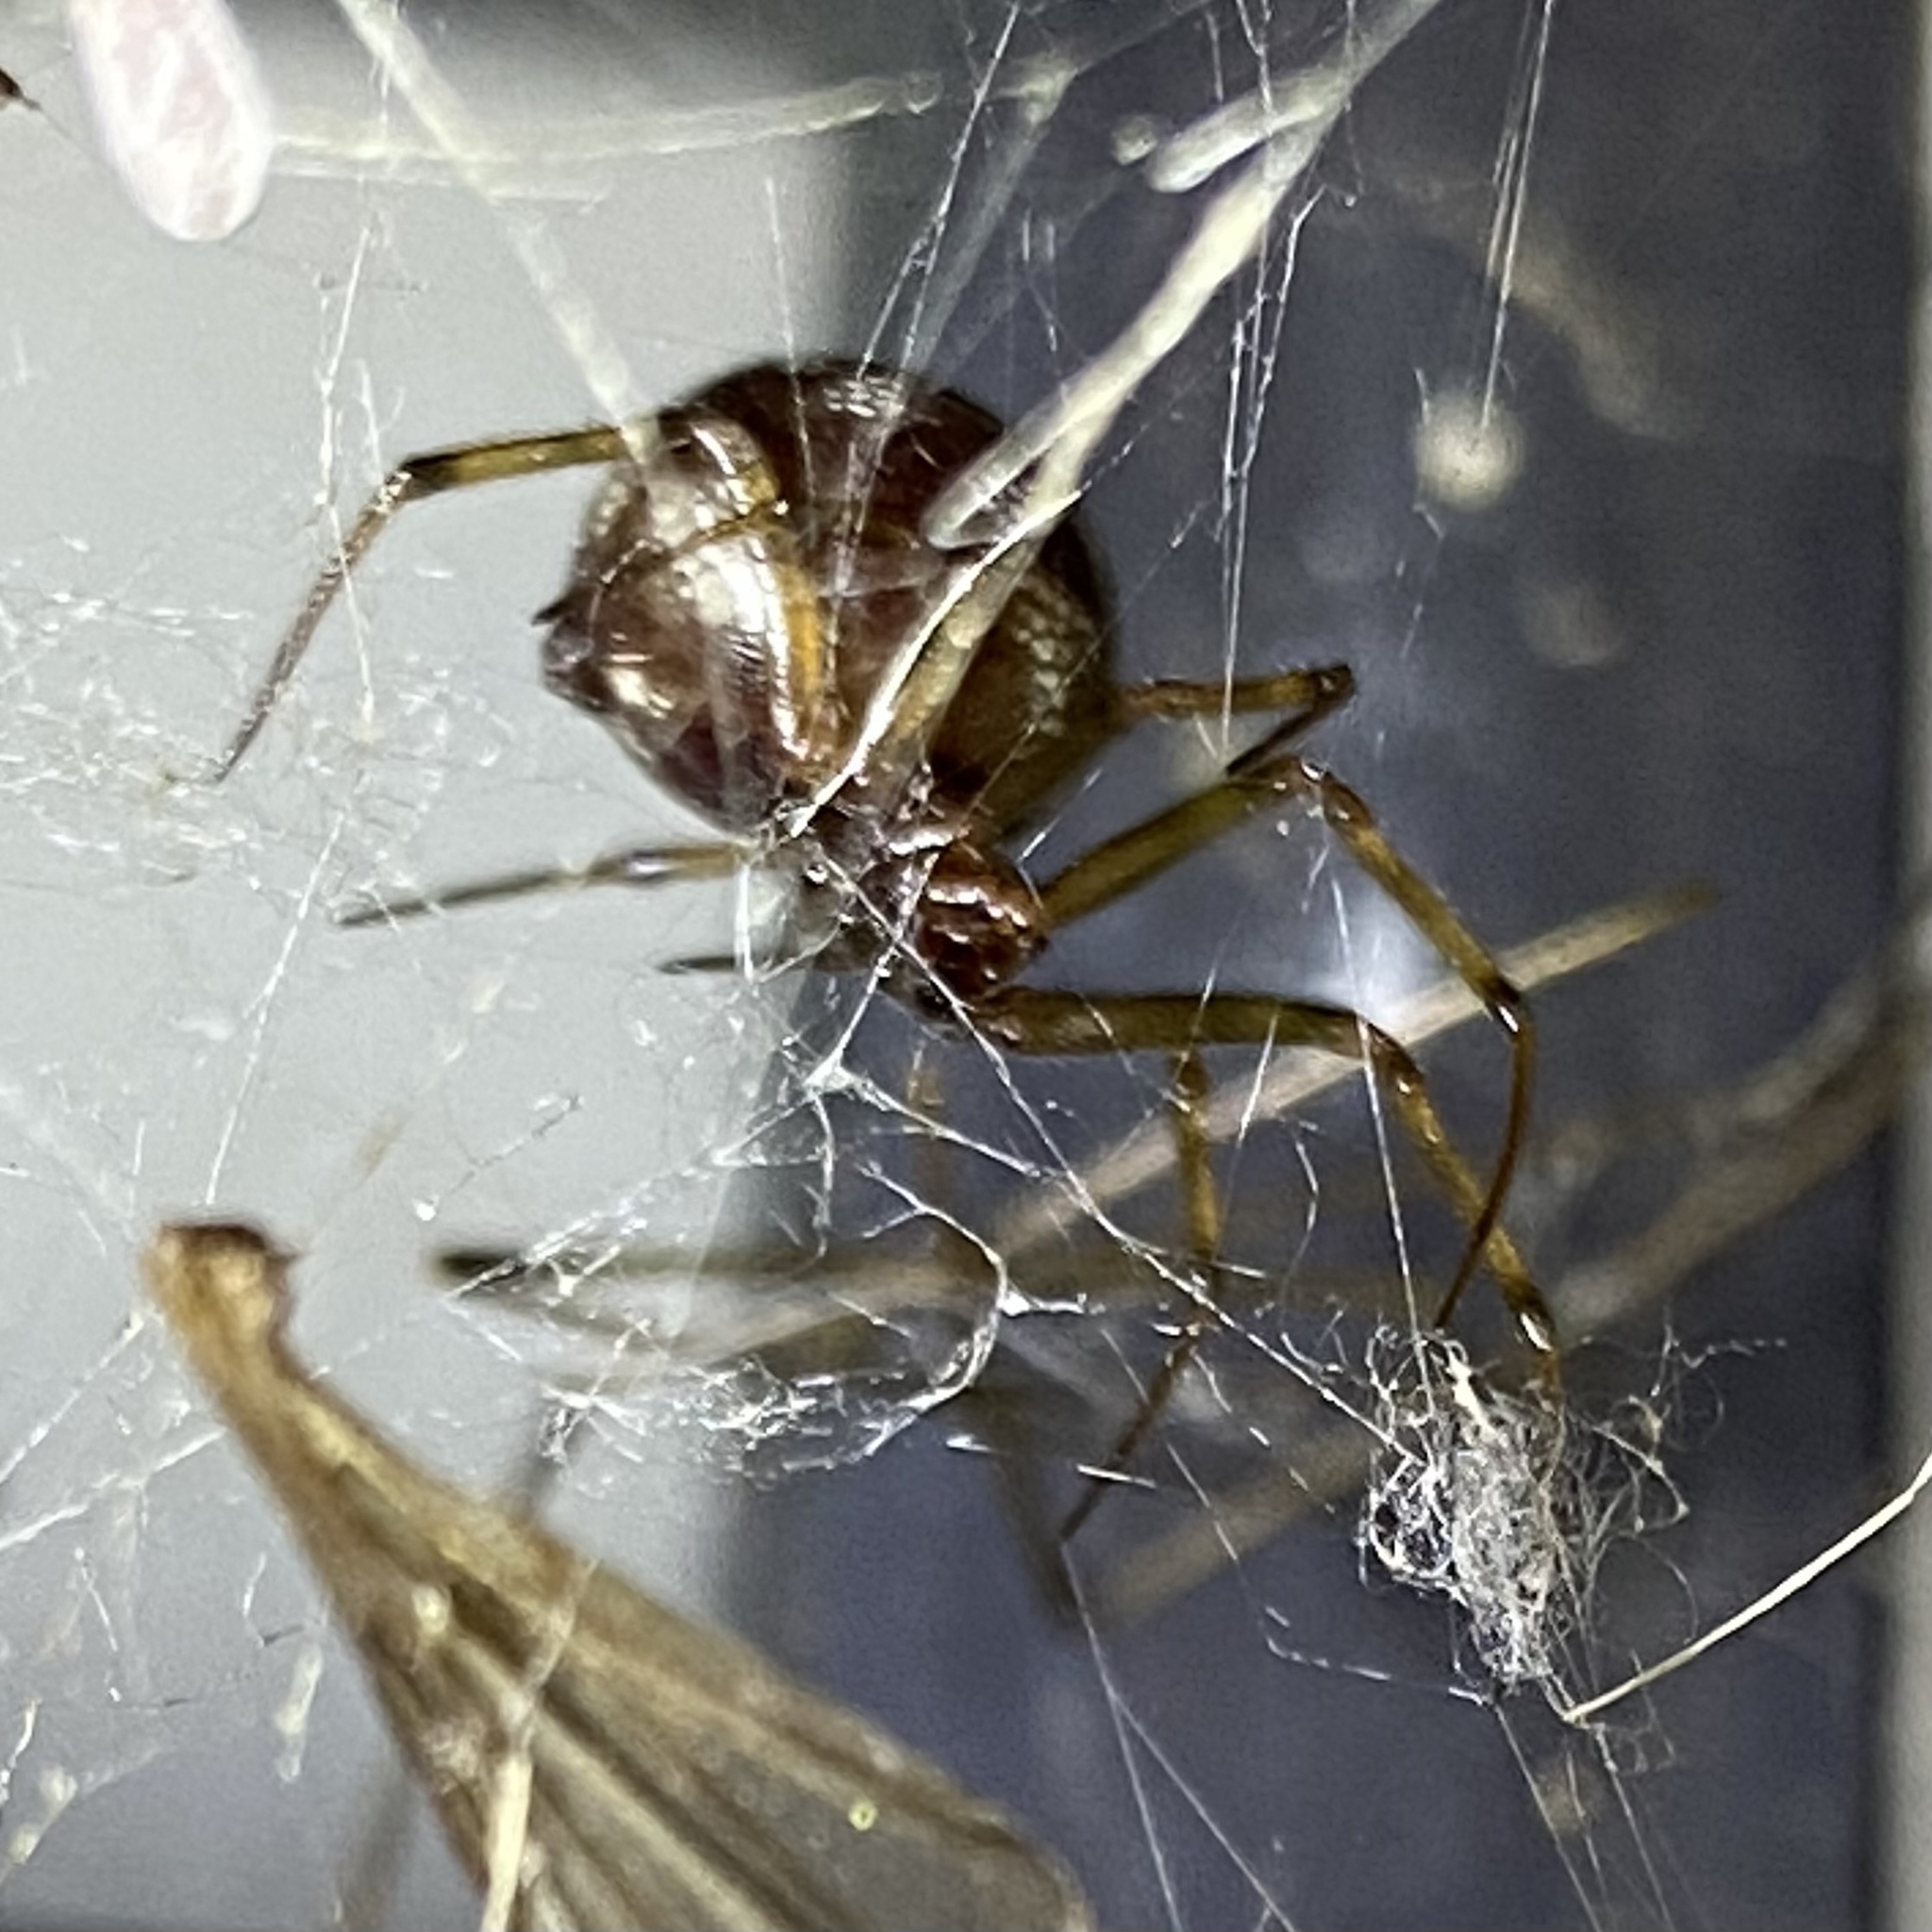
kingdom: Animalia
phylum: Arthropoda
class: Arachnida
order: Araneae
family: Theridiidae
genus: Steatoda
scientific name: Steatoda triangulosa
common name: Triangulate bud spider
